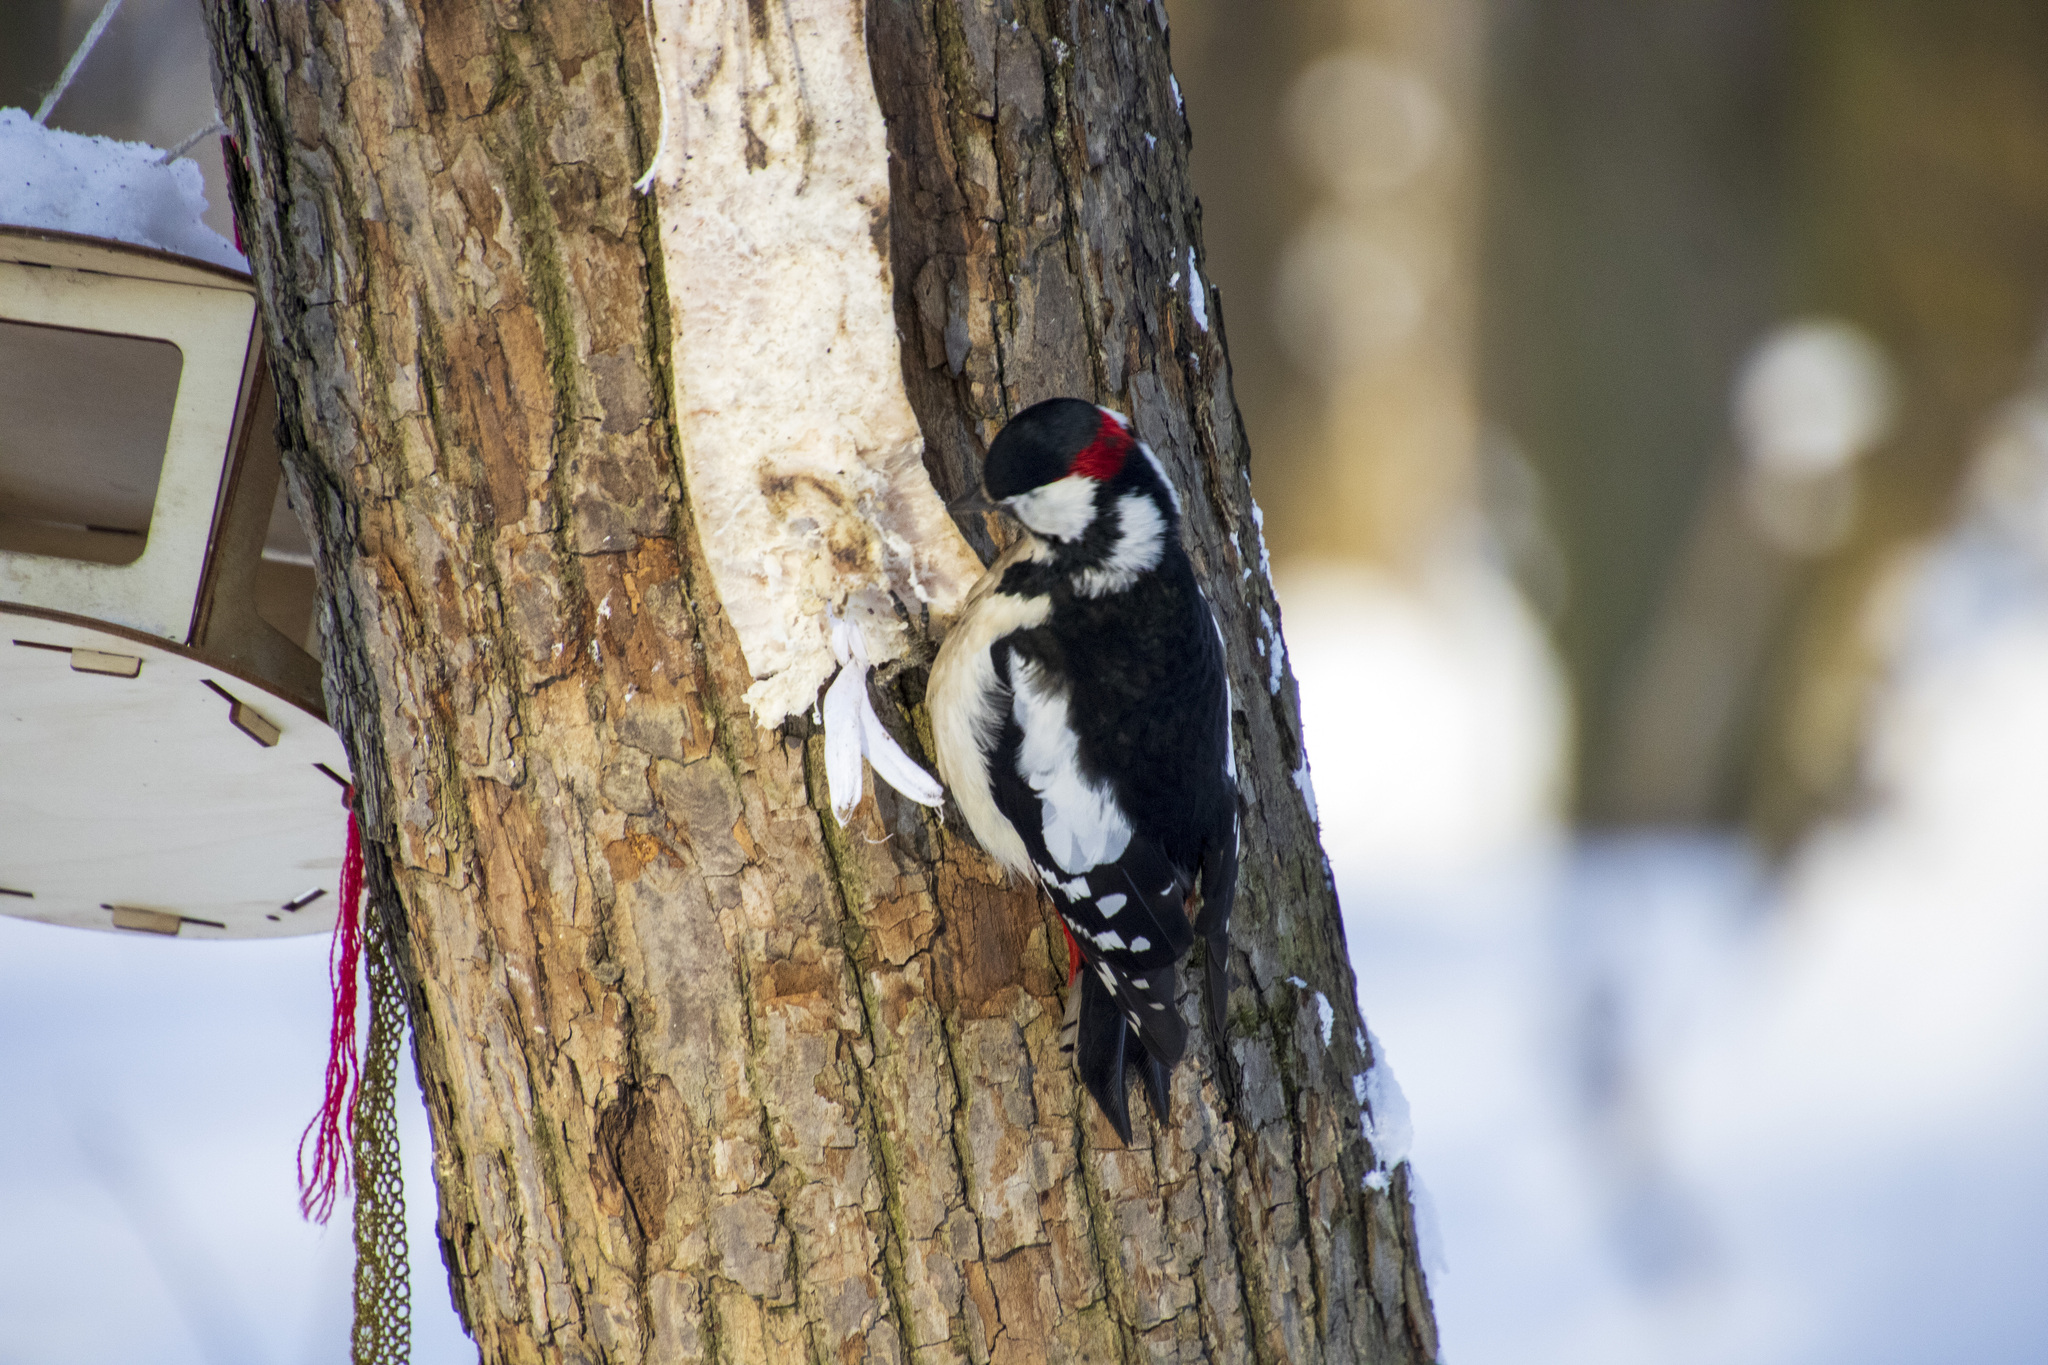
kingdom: Animalia
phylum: Chordata
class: Aves
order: Piciformes
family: Picidae
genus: Dendrocopos
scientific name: Dendrocopos major
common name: Great spotted woodpecker
